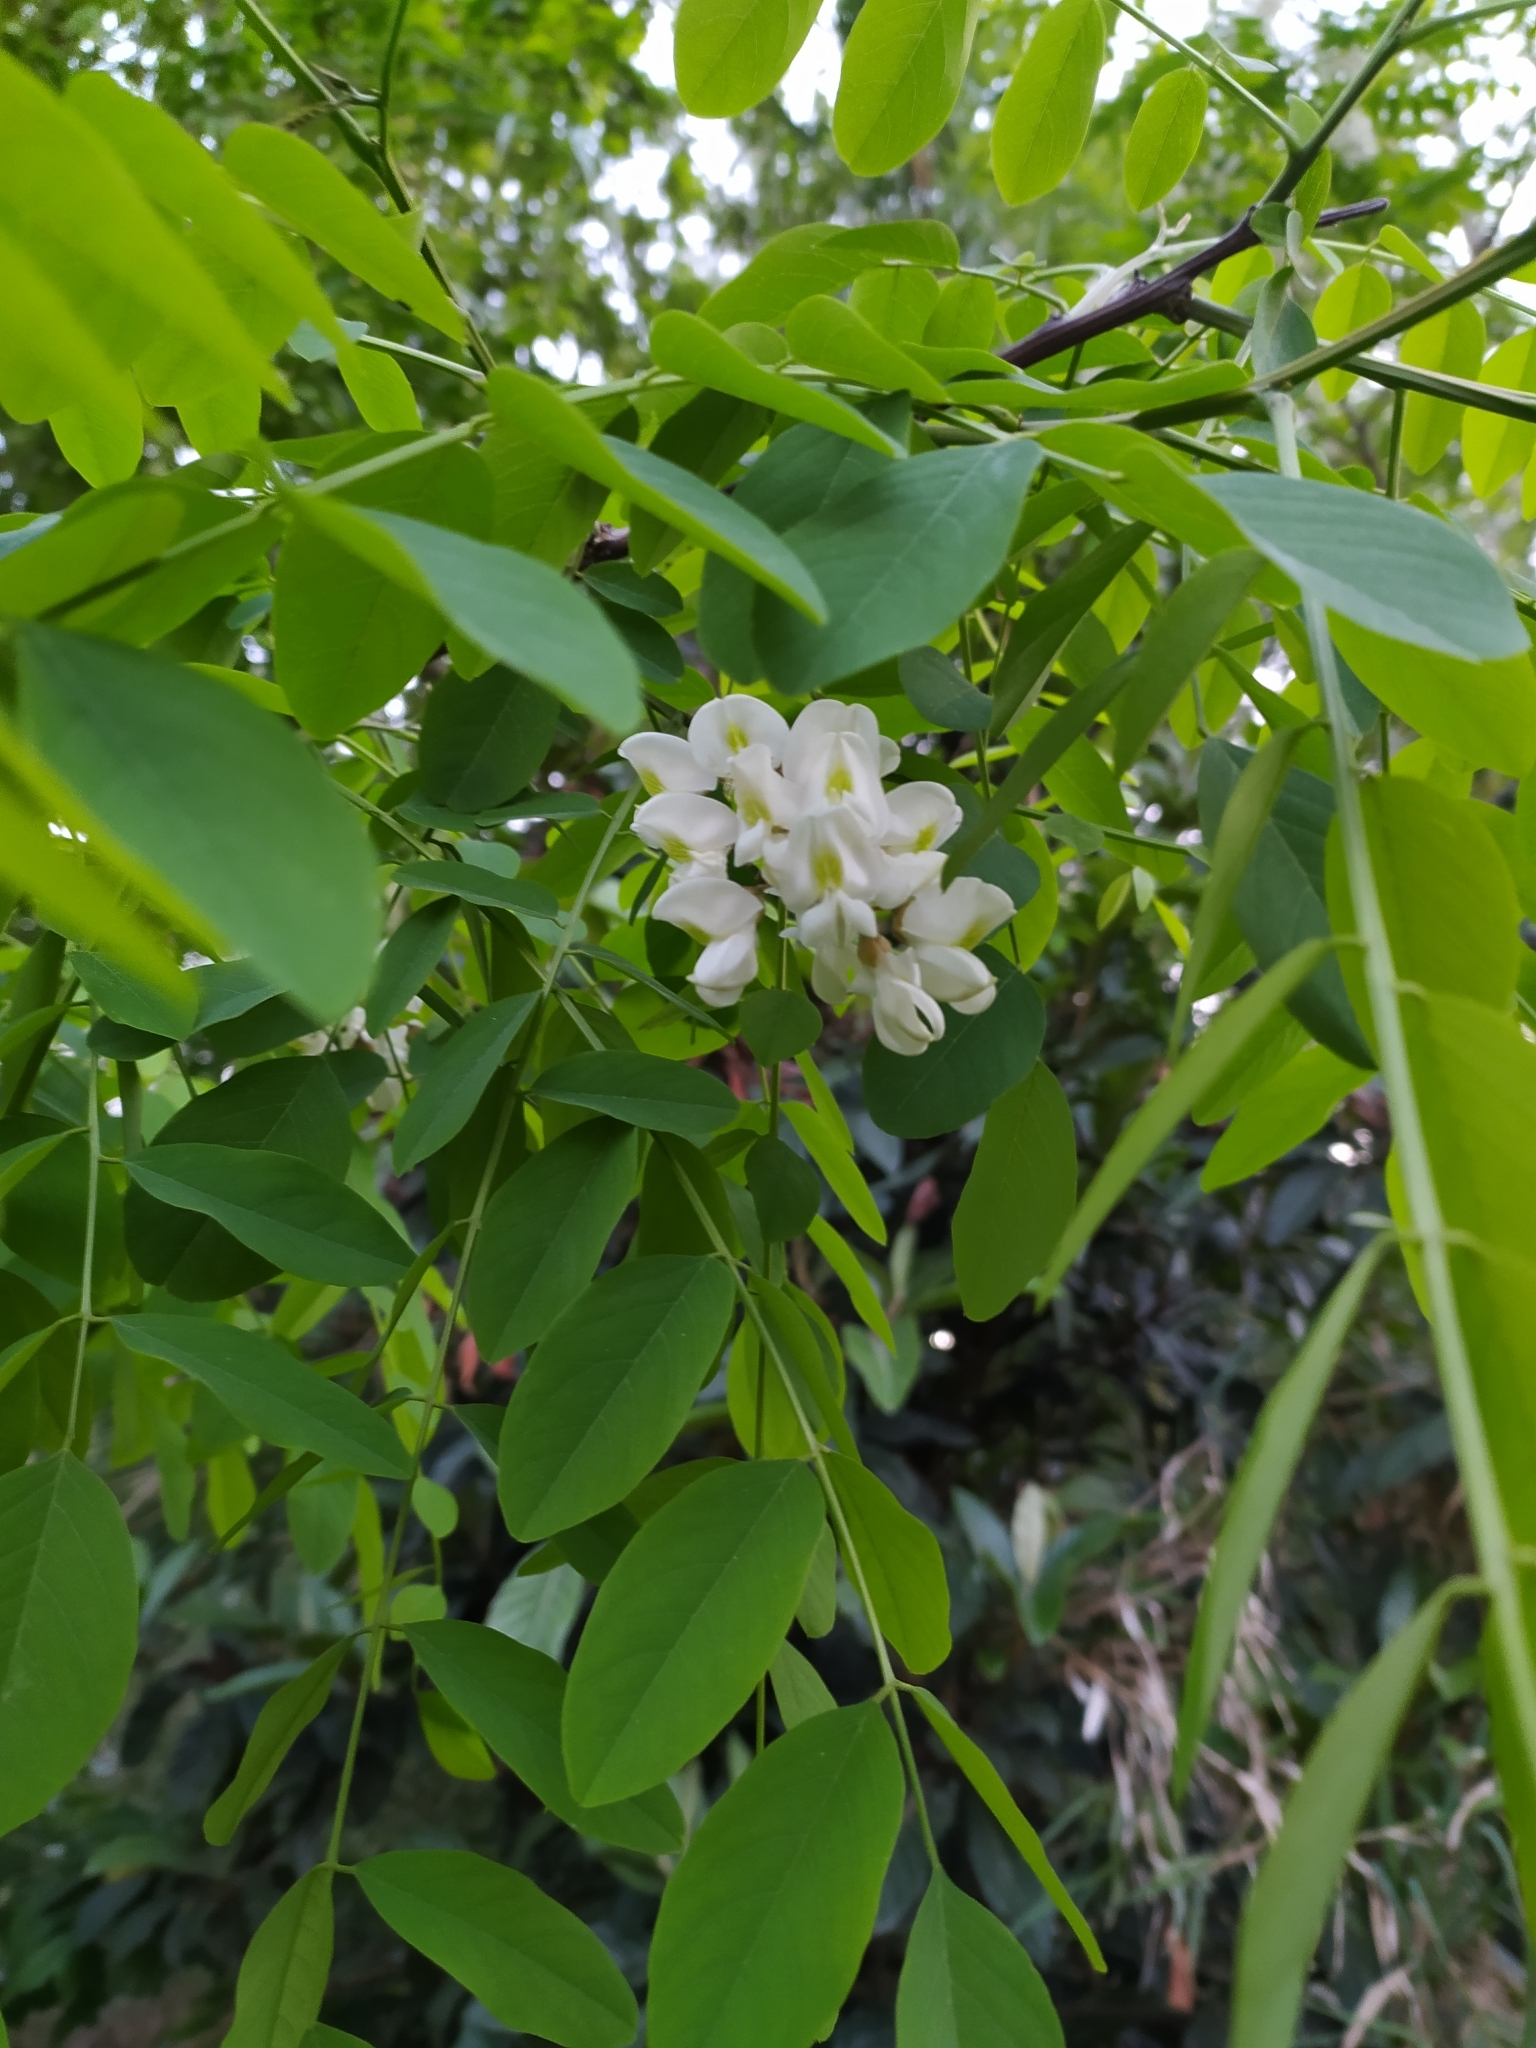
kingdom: Plantae
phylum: Tracheophyta
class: Magnoliopsida
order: Fabales
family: Fabaceae
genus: Robinia
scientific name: Robinia pseudoacacia
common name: Black locust
